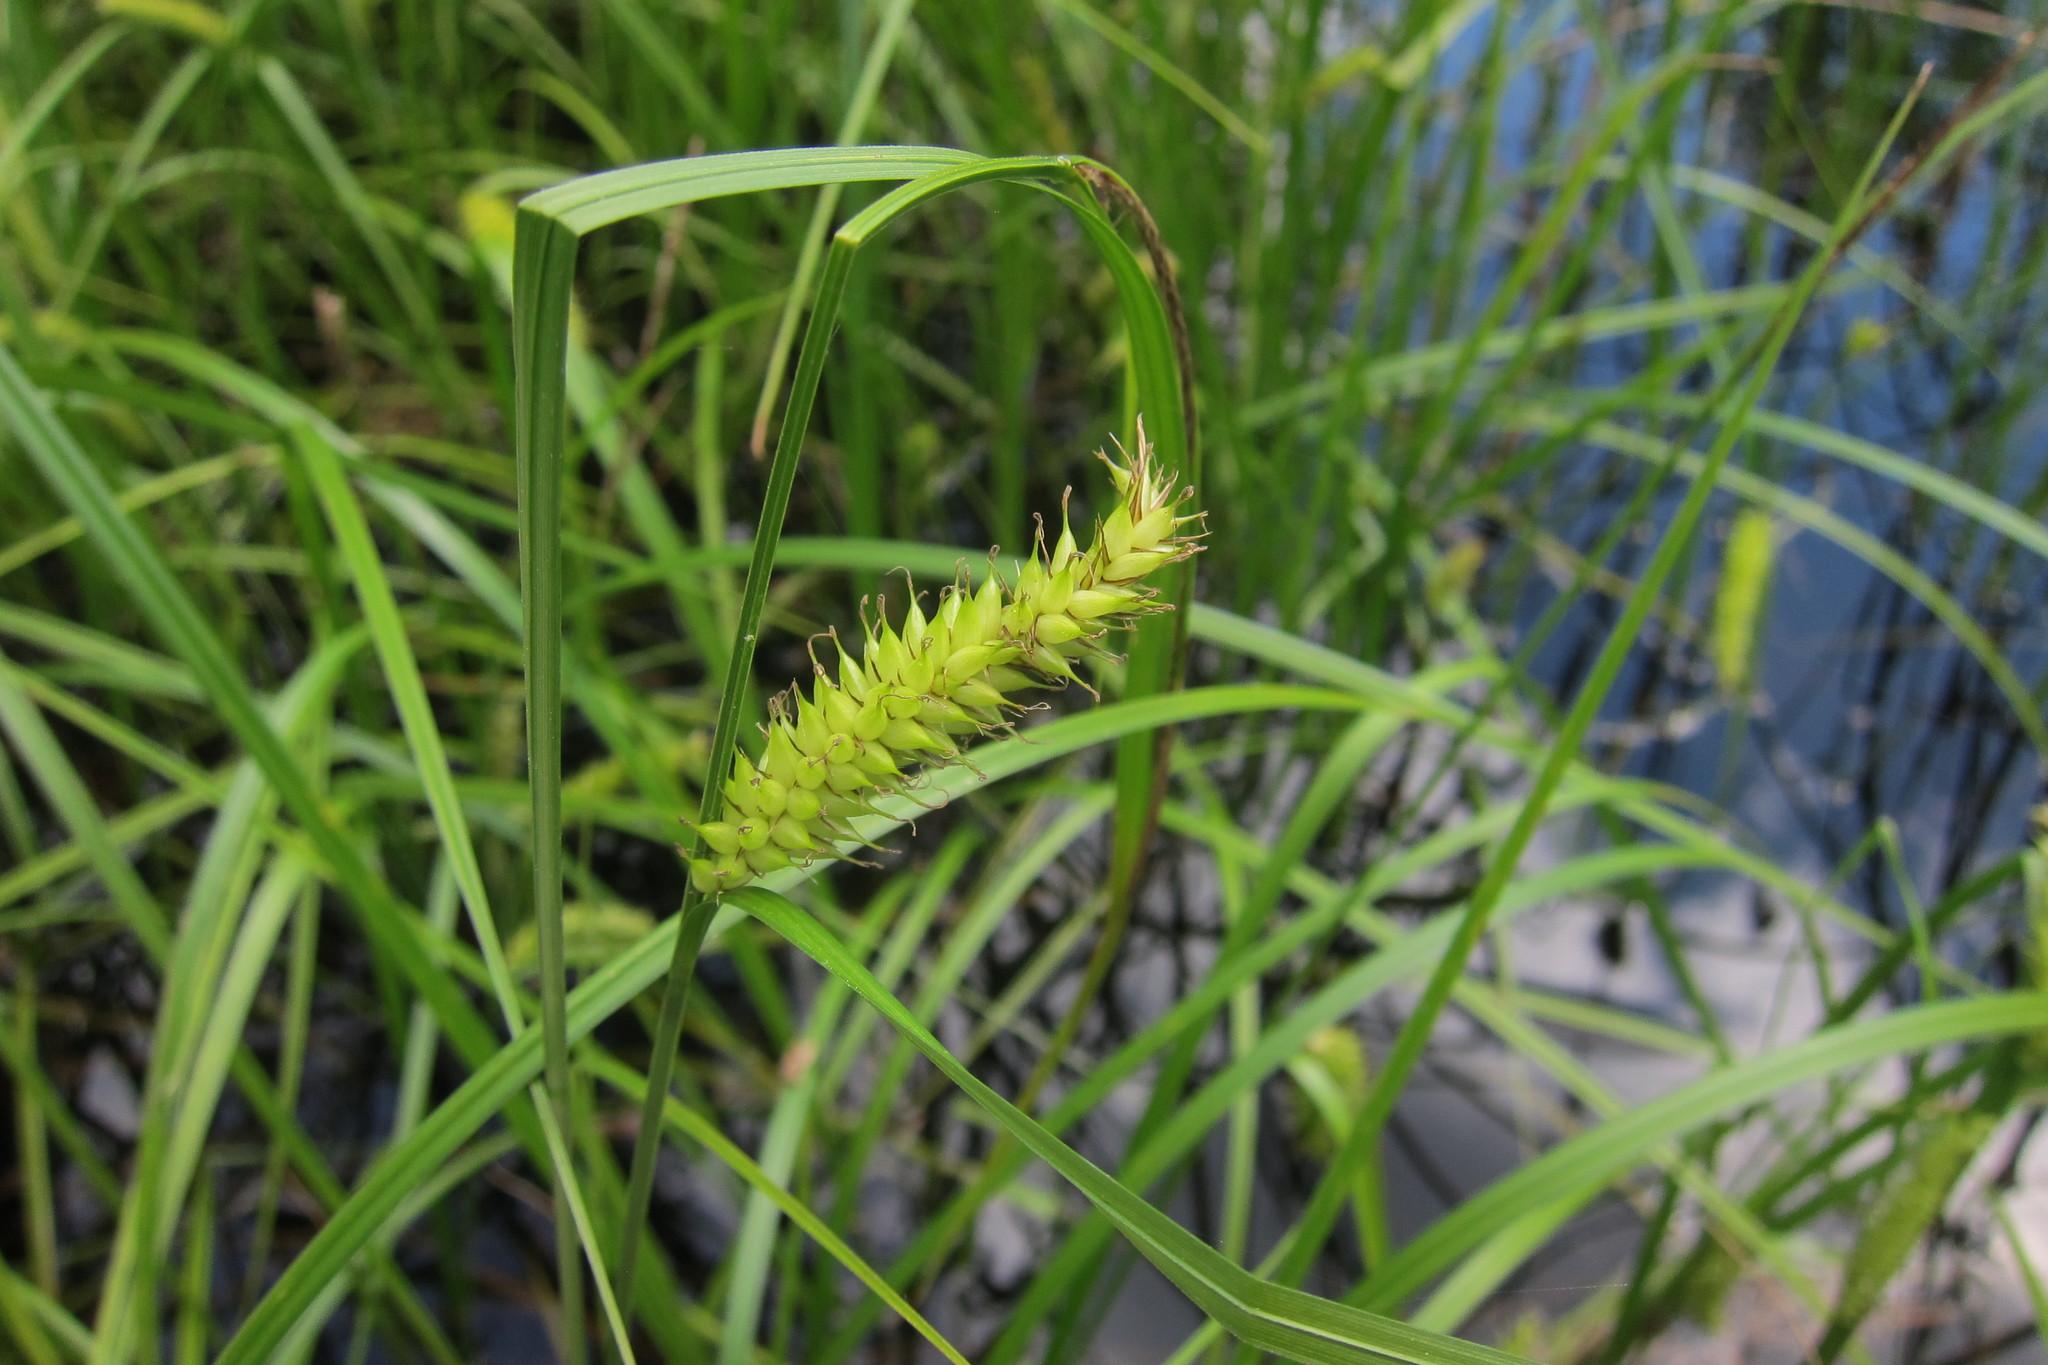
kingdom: Plantae
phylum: Tracheophyta
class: Liliopsida
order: Poales
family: Cyperaceae
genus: Carex
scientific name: Carex vesicaria
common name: Bladder-sedge
